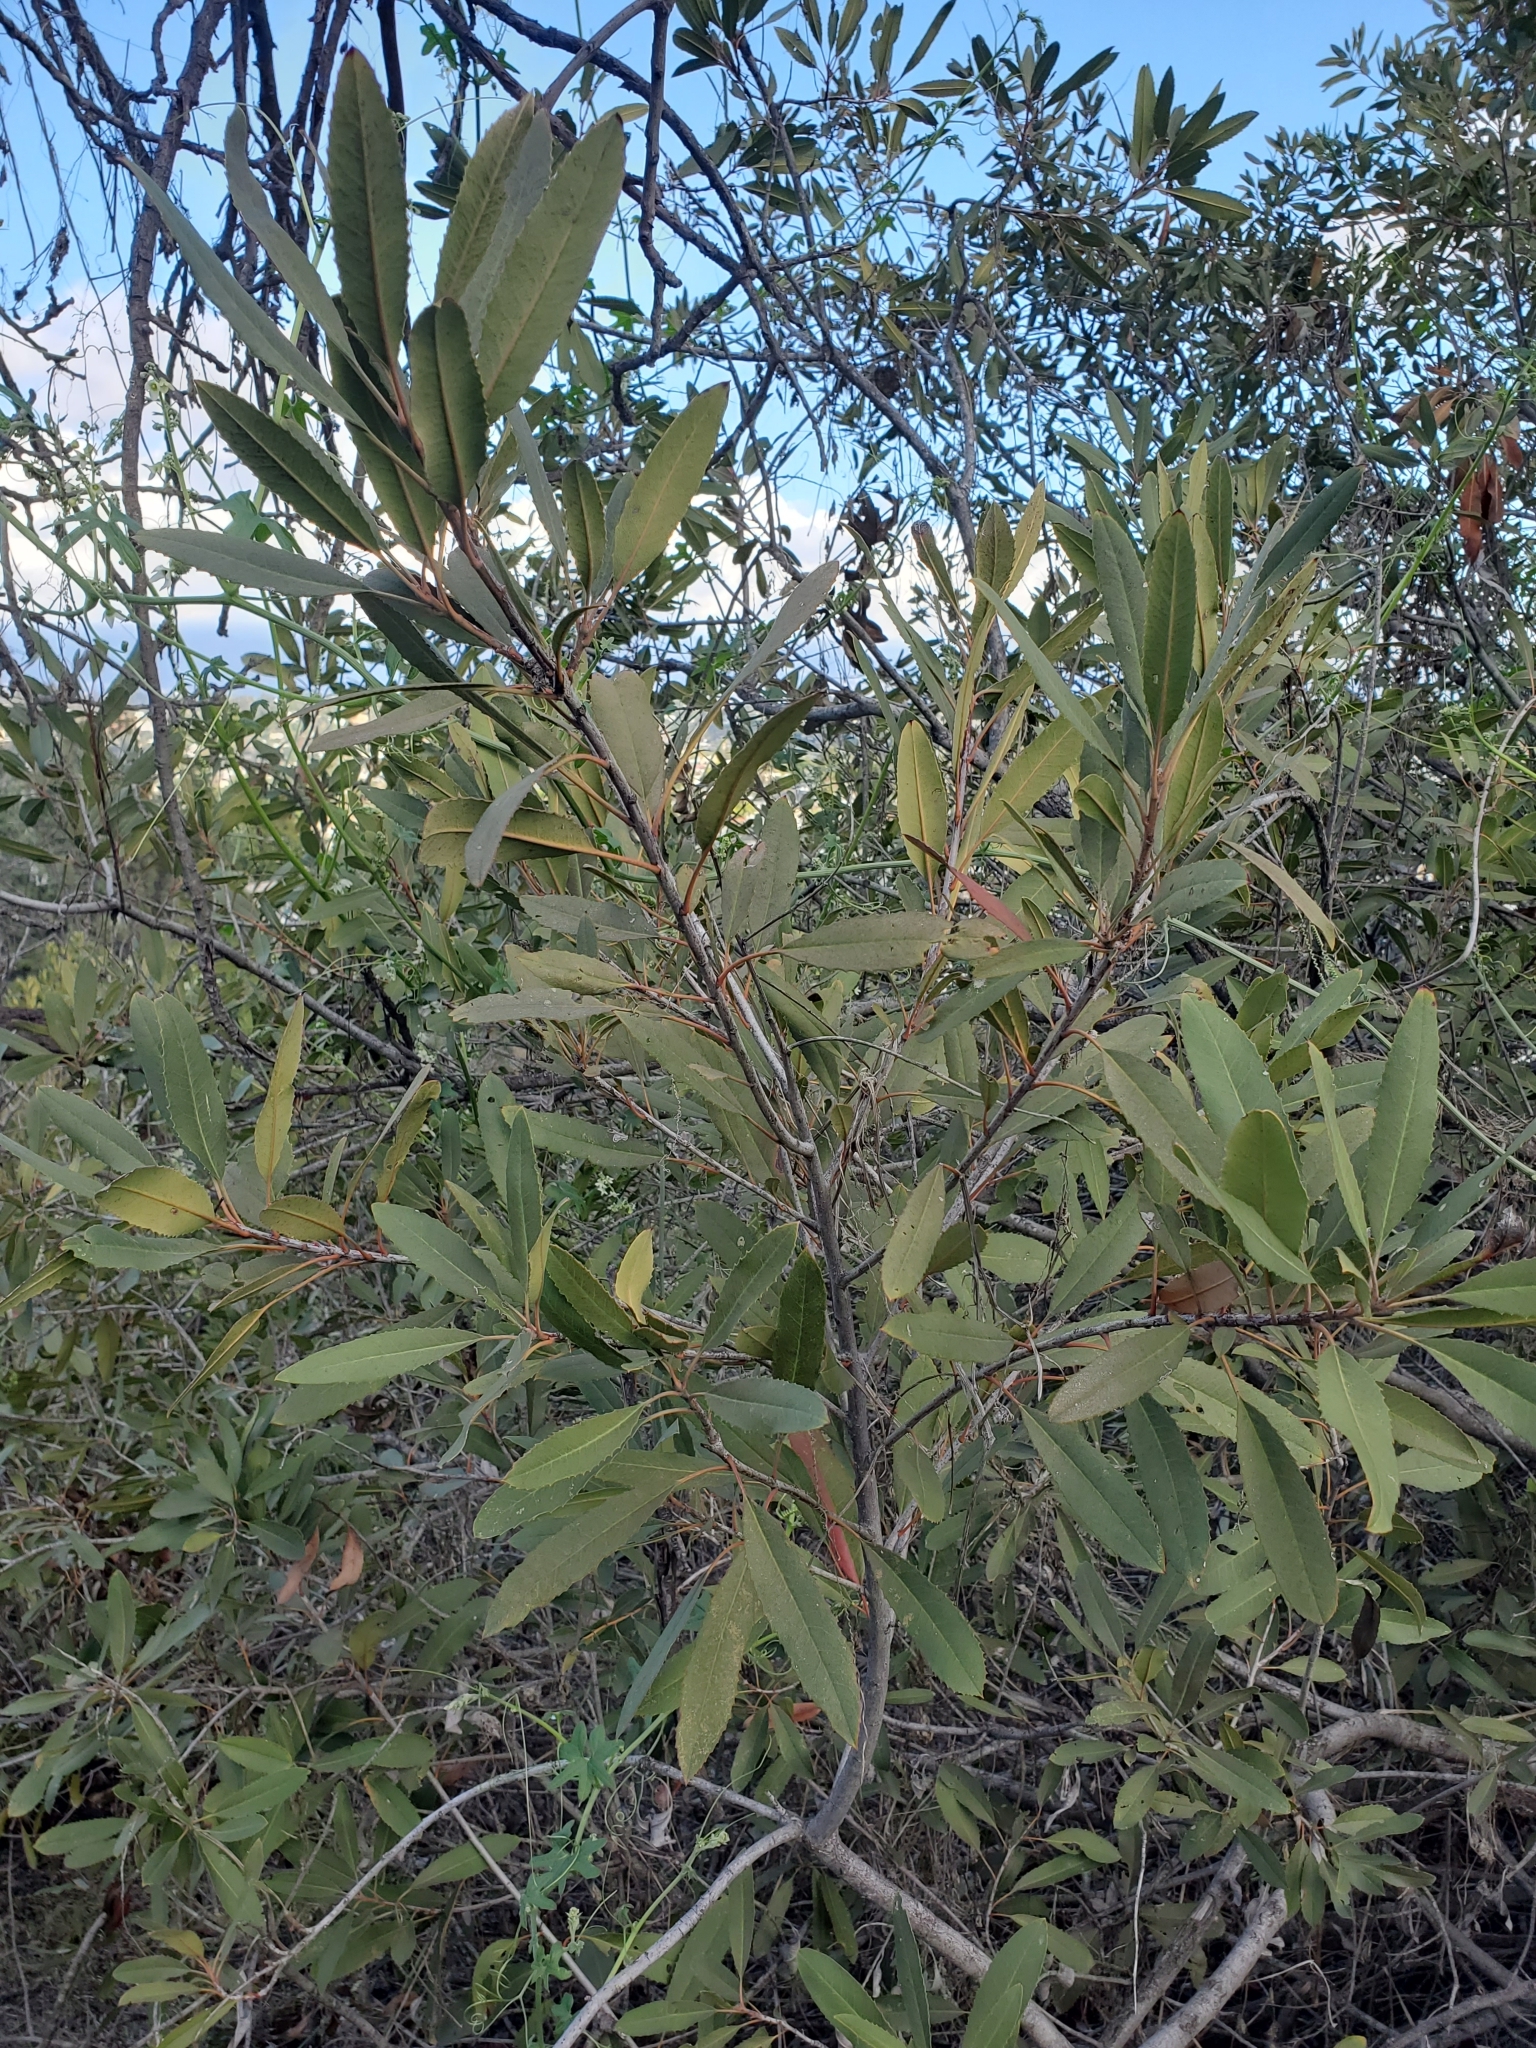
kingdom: Plantae
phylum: Tracheophyta
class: Magnoliopsida
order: Rosales
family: Rosaceae
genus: Heteromeles
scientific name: Heteromeles arbutifolia
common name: California-holly
